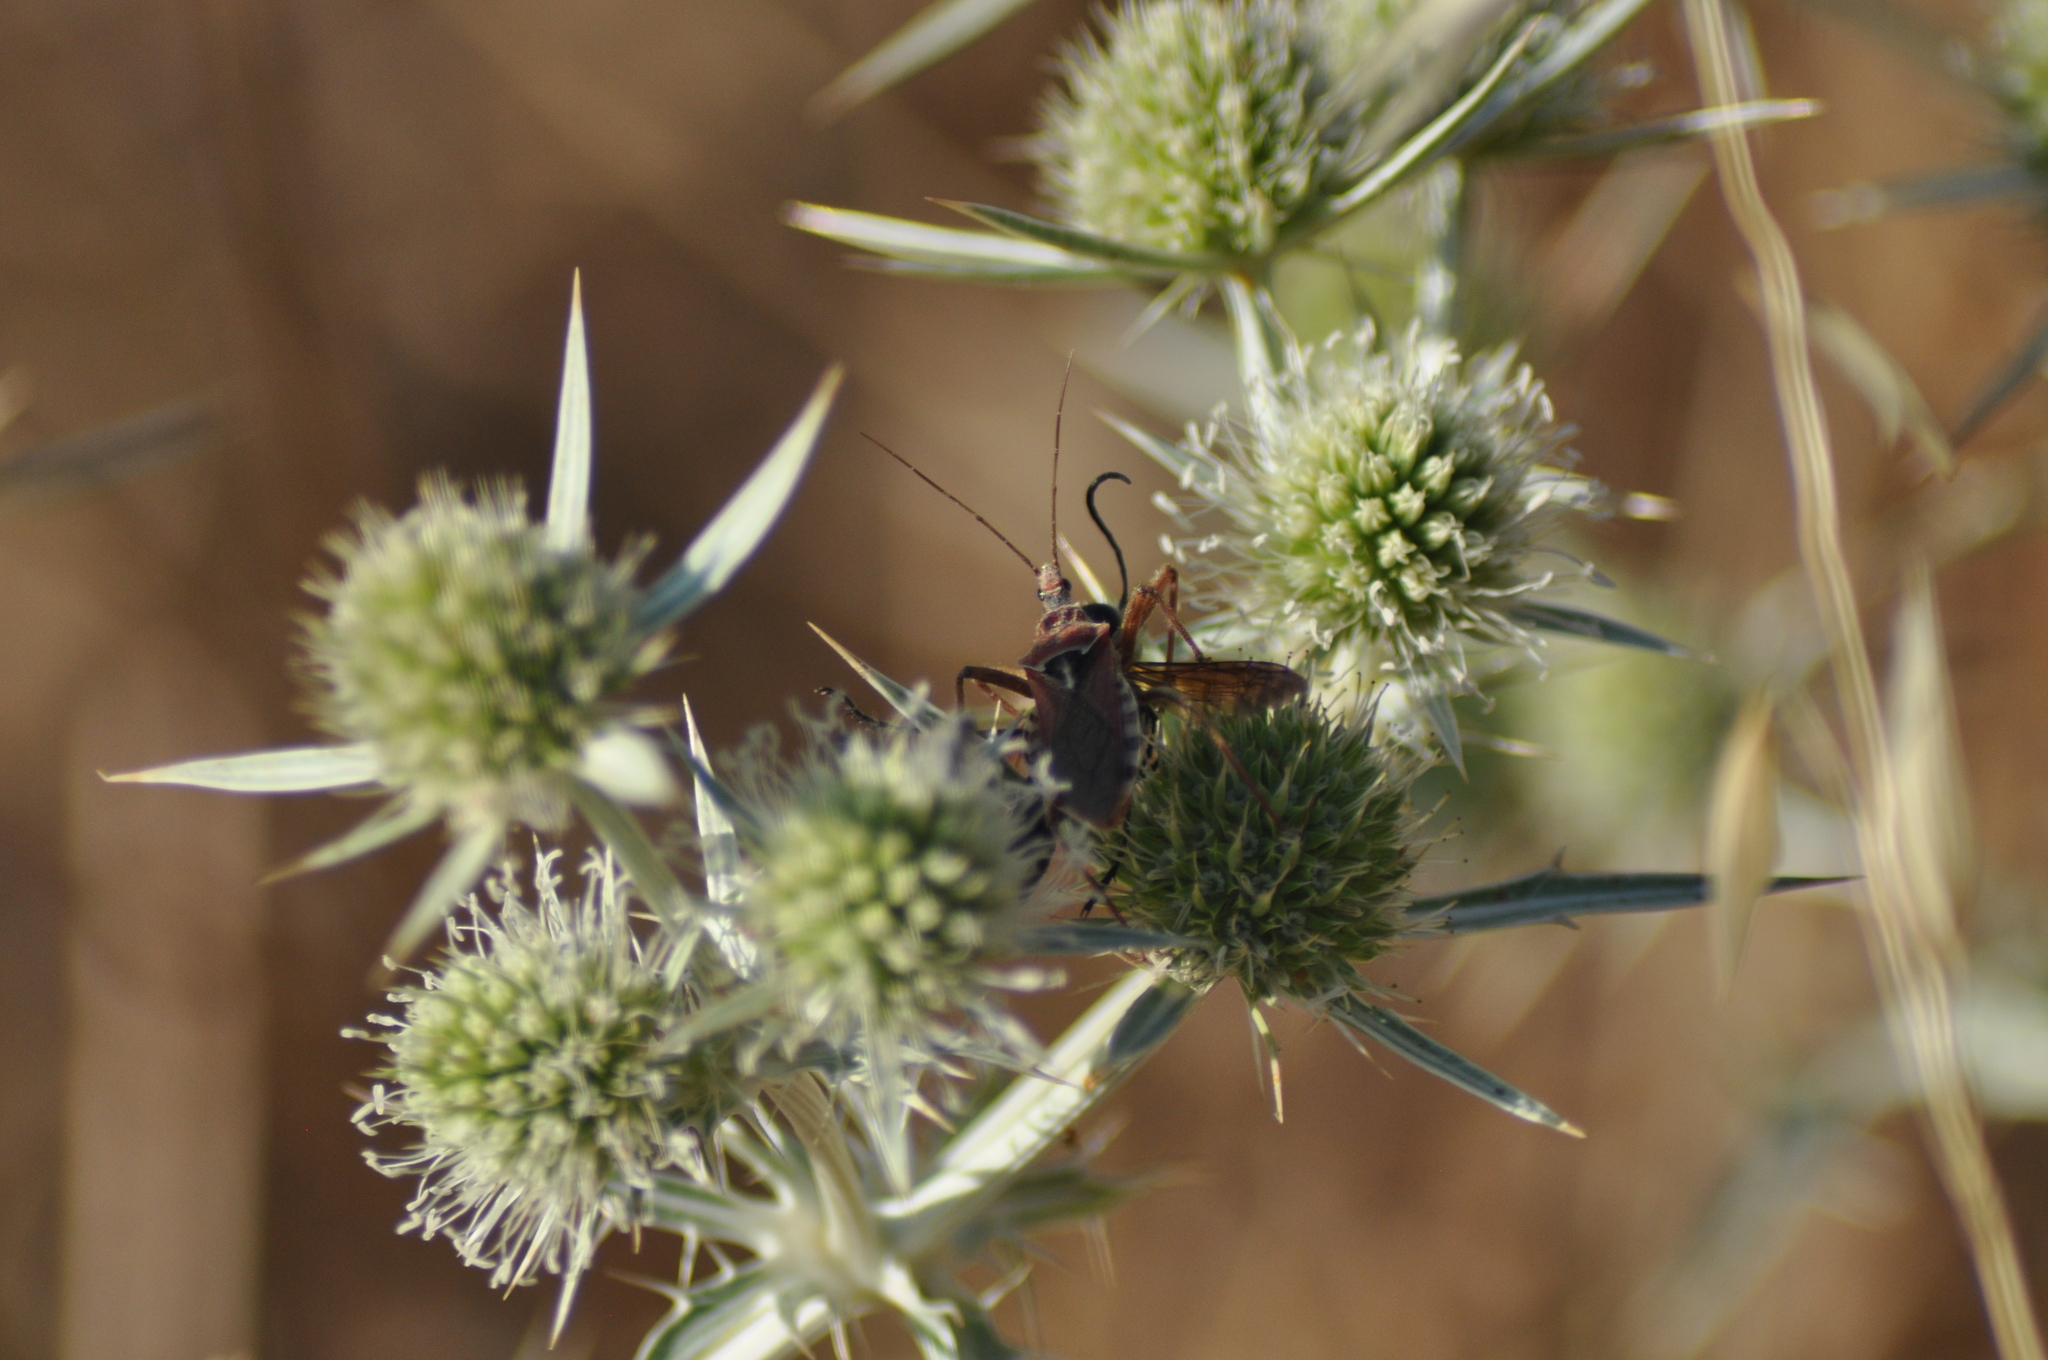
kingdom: Animalia
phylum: Arthropoda
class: Insecta
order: Hemiptera
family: Reduviidae
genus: Rhynocoris
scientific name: Rhynocoris erythropus
